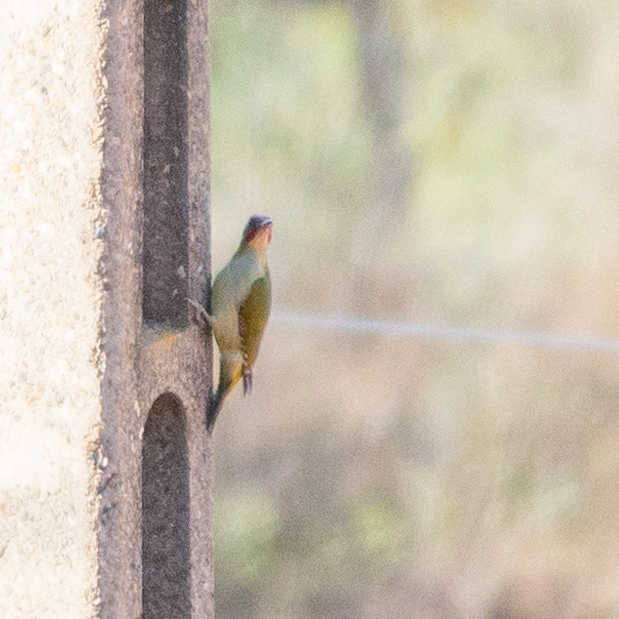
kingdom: Animalia
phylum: Chordata
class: Aves
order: Piciformes
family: Picidae
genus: Picus
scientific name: Picus sharpei
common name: Iberian green woodpecker
